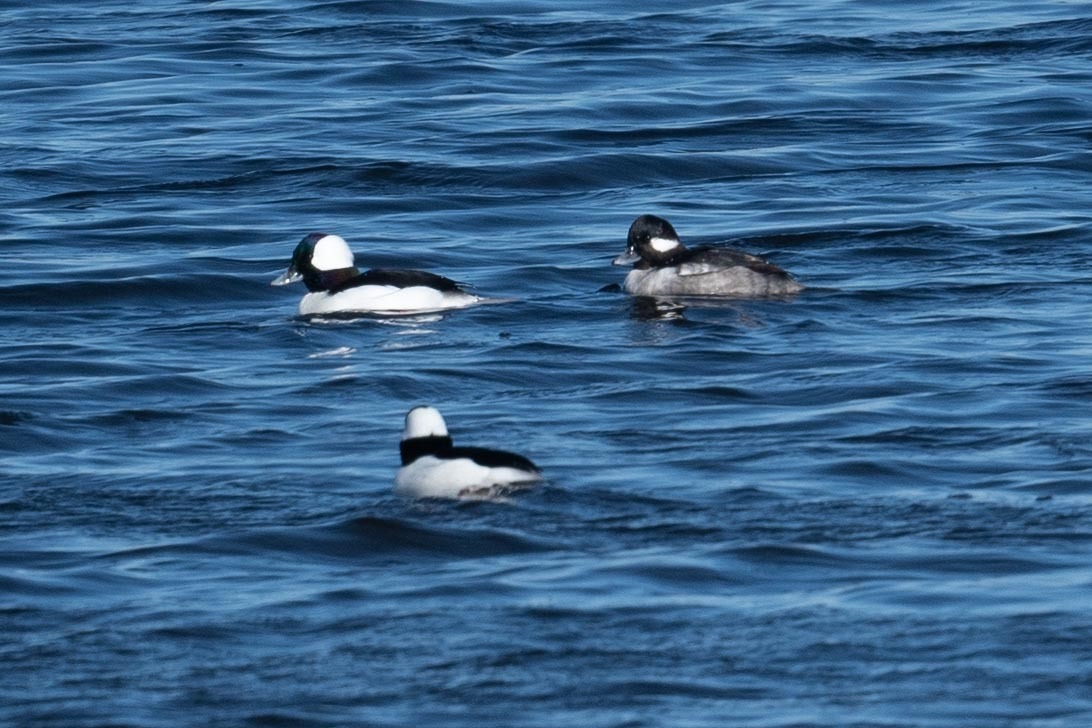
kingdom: Animalia
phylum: Chordata
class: Aves
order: Anseriformes
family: Anatidae
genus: Bucephala
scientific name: Bucephala albeola
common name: Bufflehead
